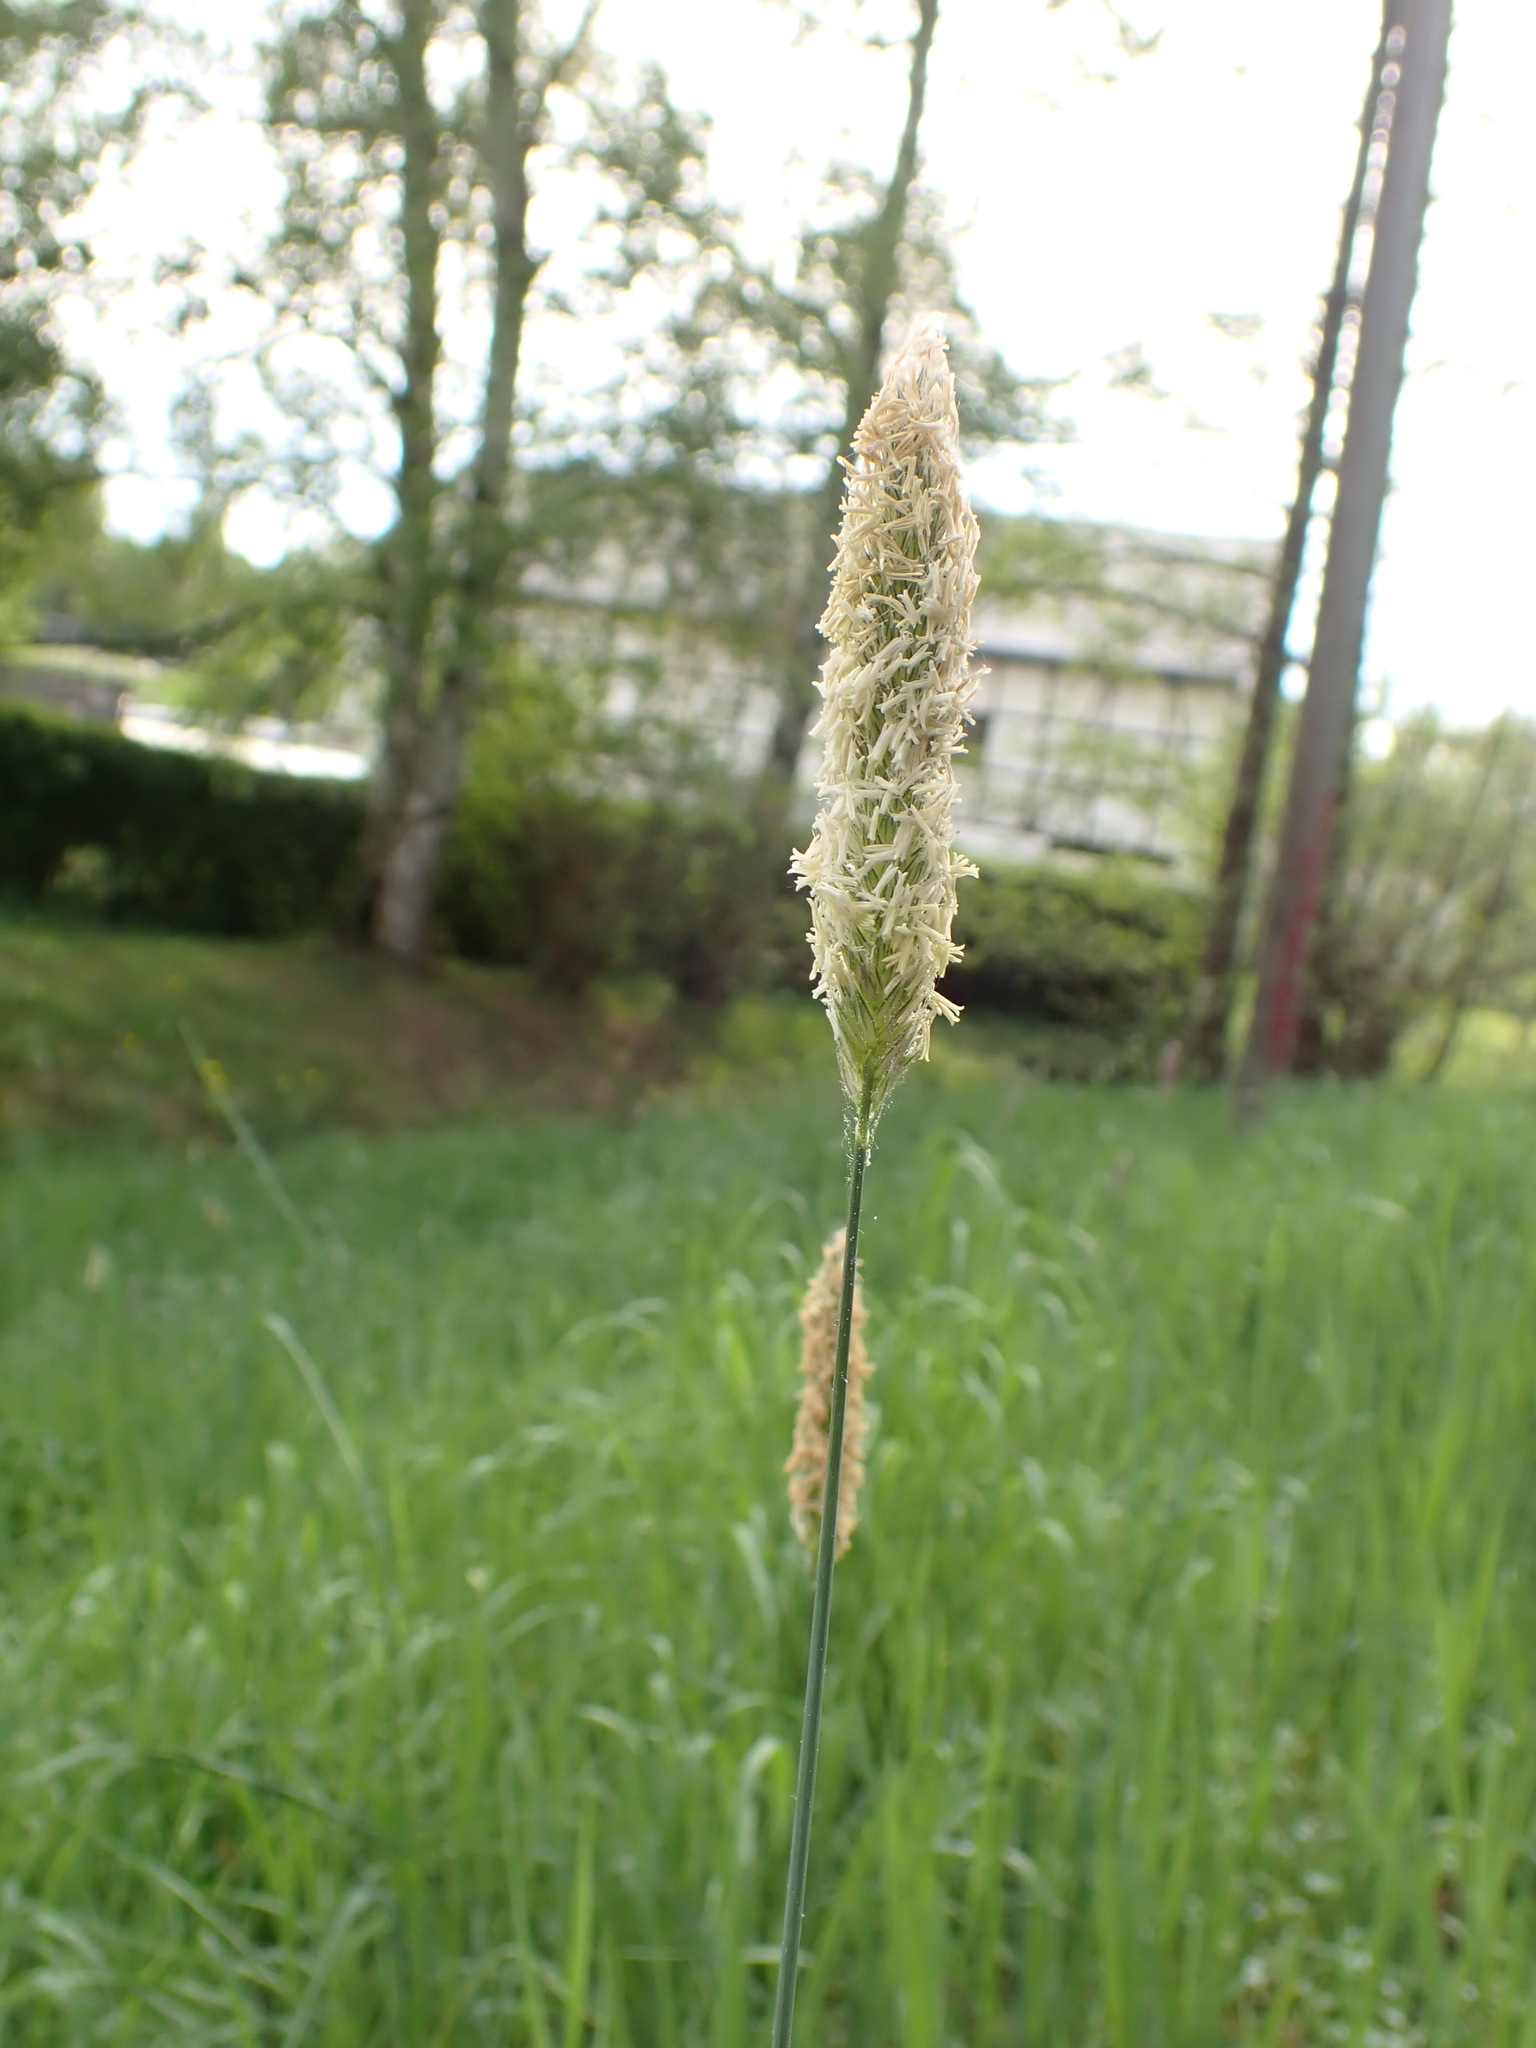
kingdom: Plantae
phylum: Tracheophyta
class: Liliopsida
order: Poales
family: Poaceae
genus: Alopecurus
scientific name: Alopecurus pratensis
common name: Meadow foxtail
